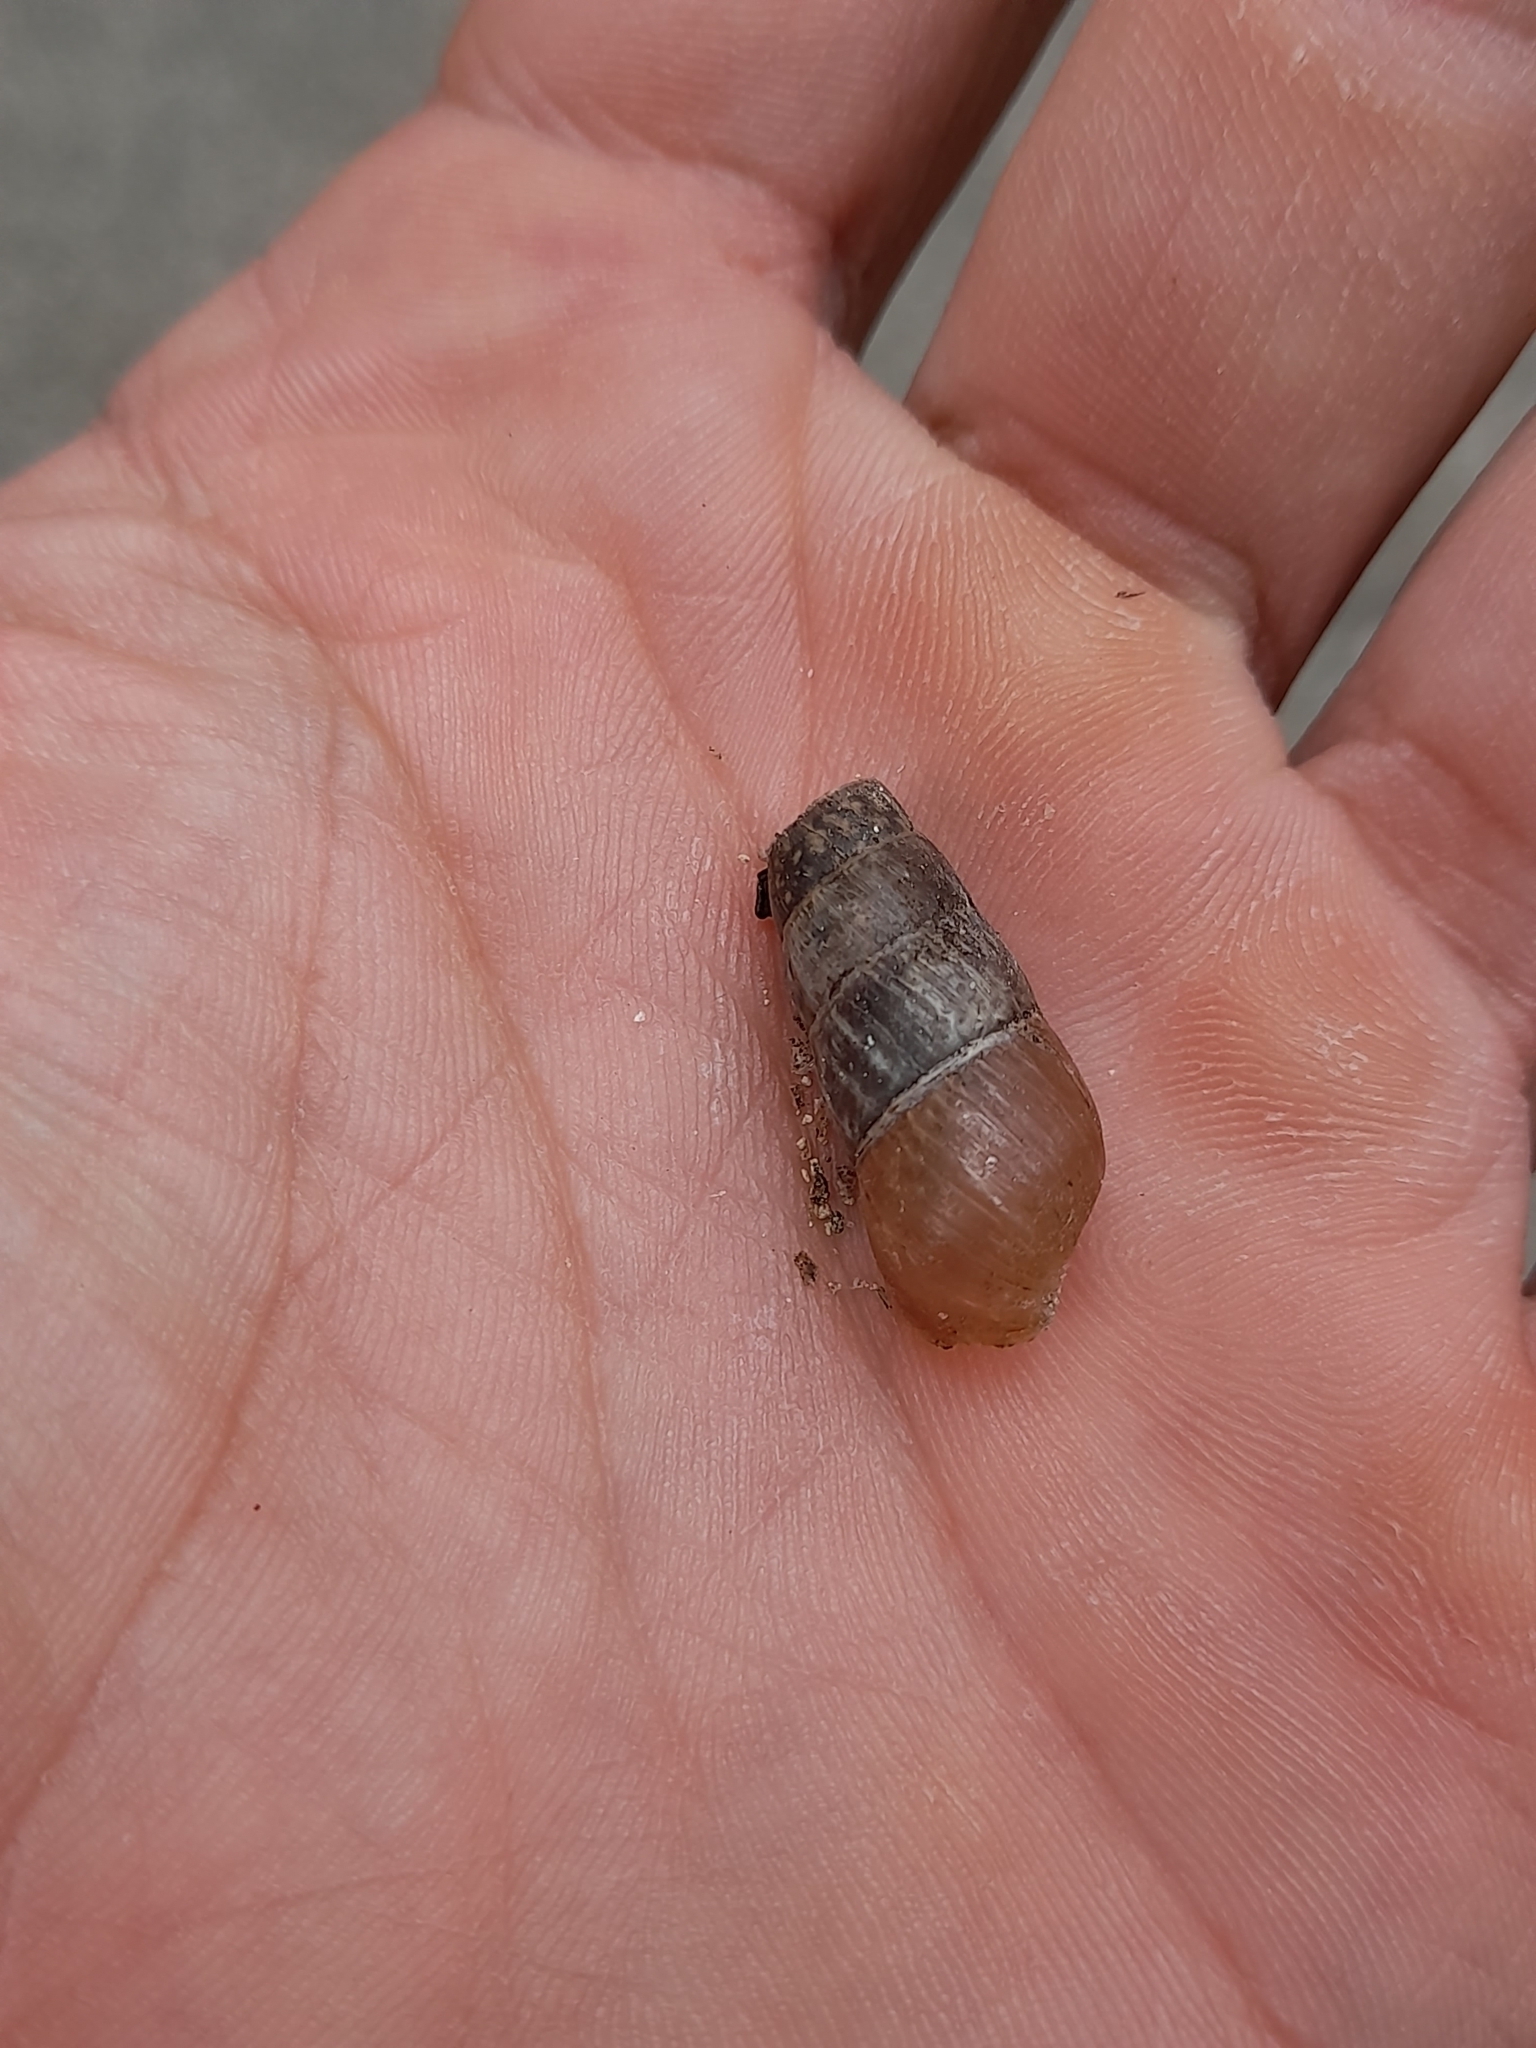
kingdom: Animalia
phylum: Mollusca
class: Gastropoda
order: Stylommatophora
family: Achatinidae
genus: Rumina
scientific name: Rumina decollata
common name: Decollate snail
